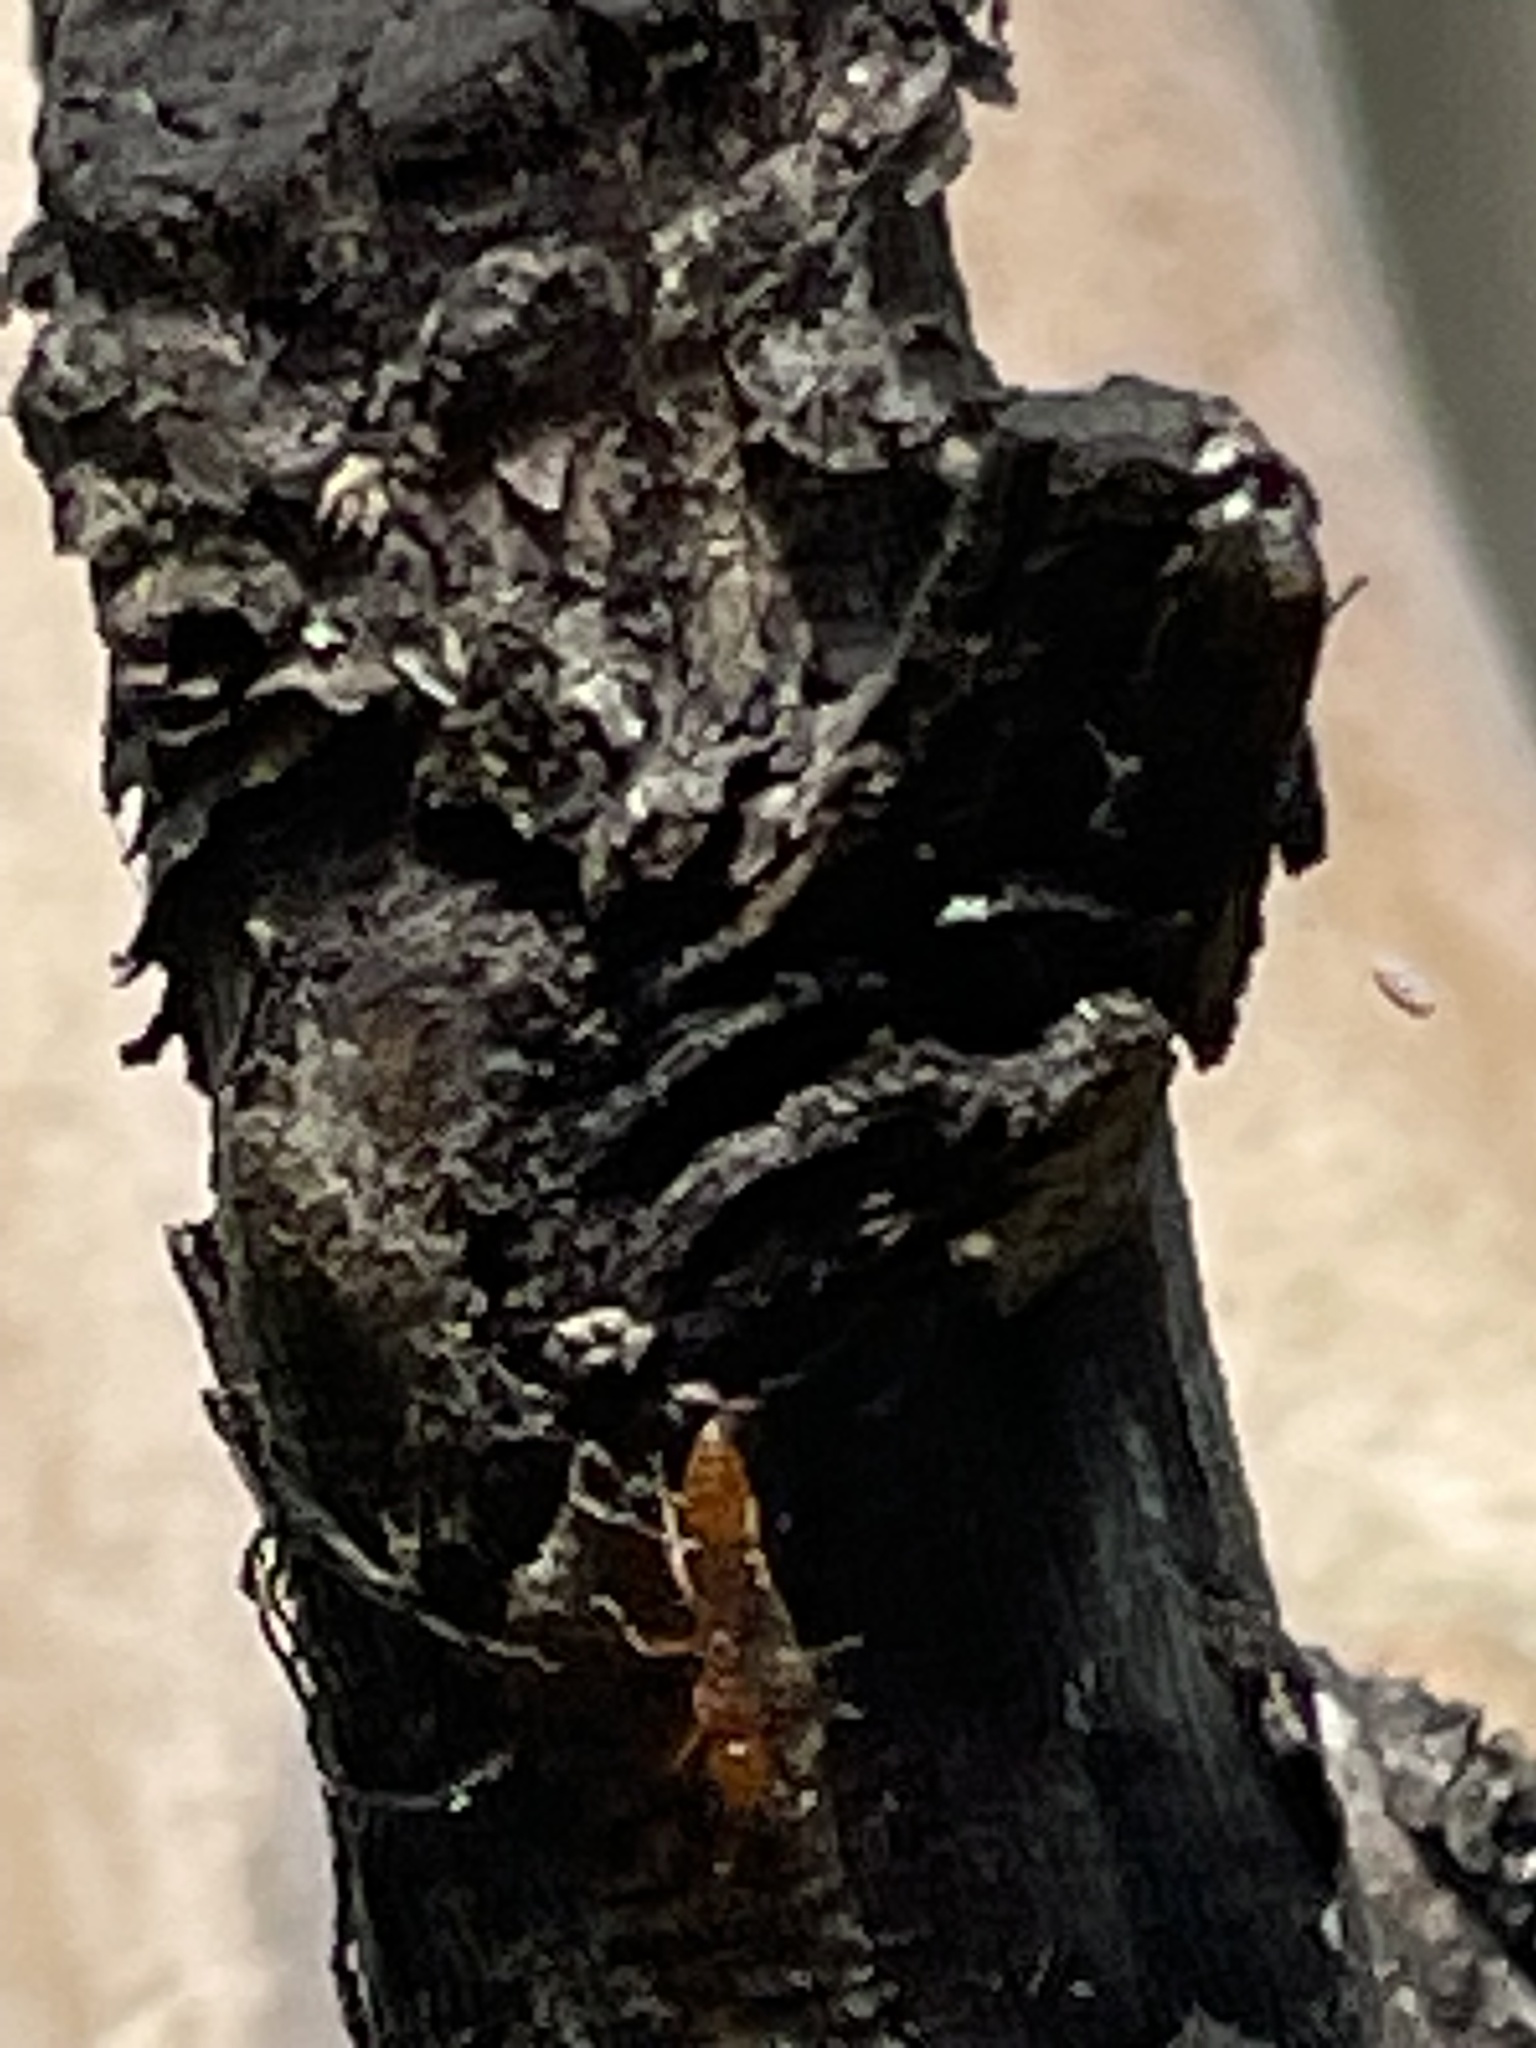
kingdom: Animalia
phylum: Arthropoda
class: Insecta
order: Hymenoptera
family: Formicidae
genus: Pseudomyrmex
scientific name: Pseudomyrmex pallidus
